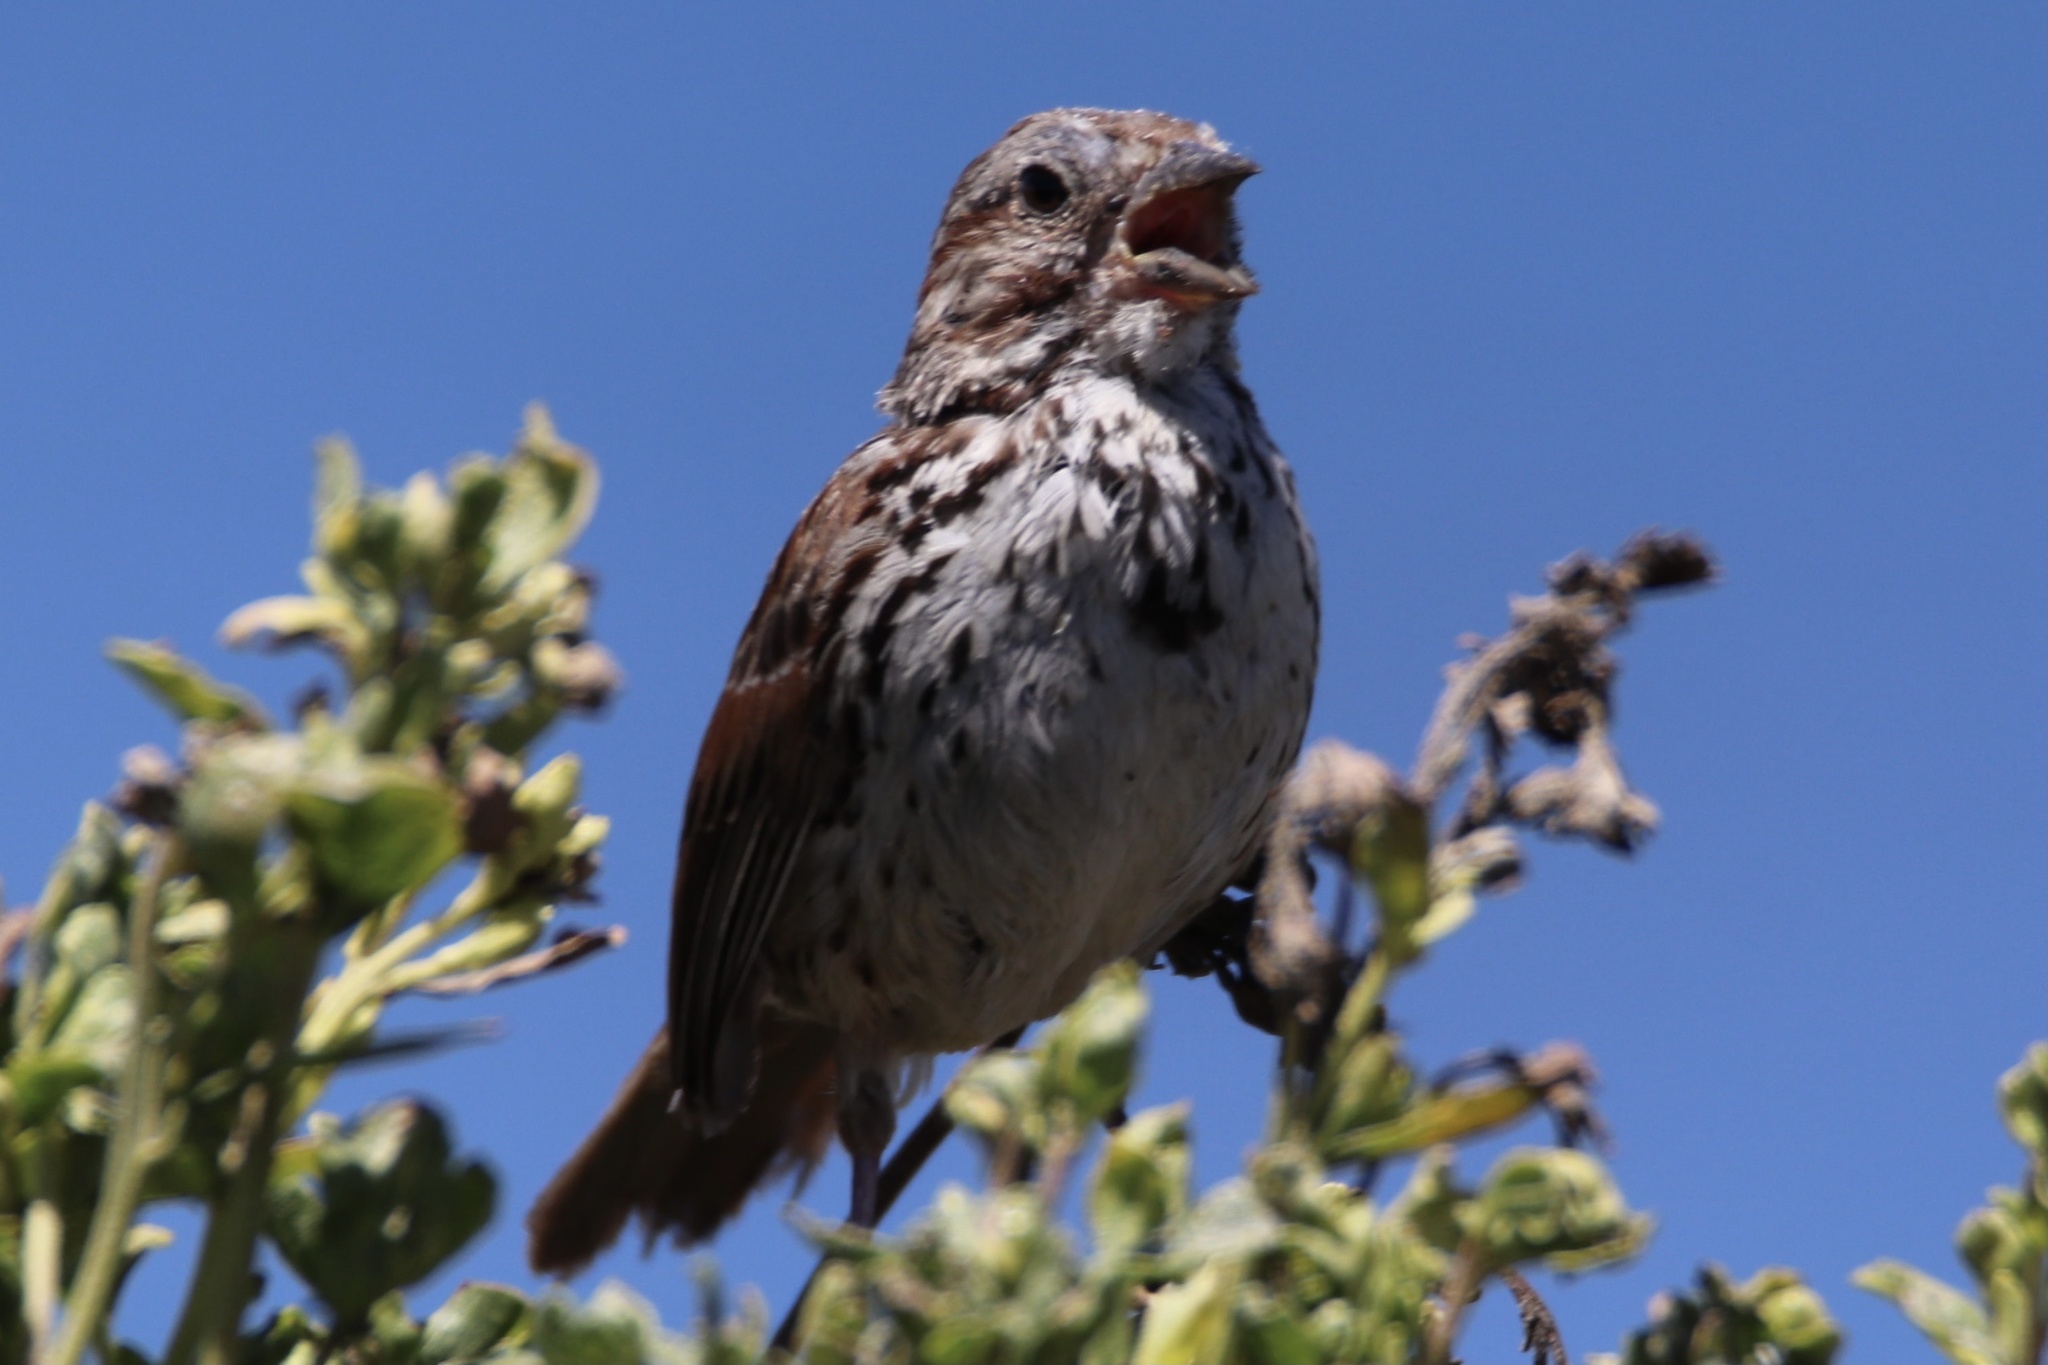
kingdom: Animalia
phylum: Chordata
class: Aves
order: Passeriformes
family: Passerellidae
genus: Melospiza
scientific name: Melospiza melodia
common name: Song sparrow
